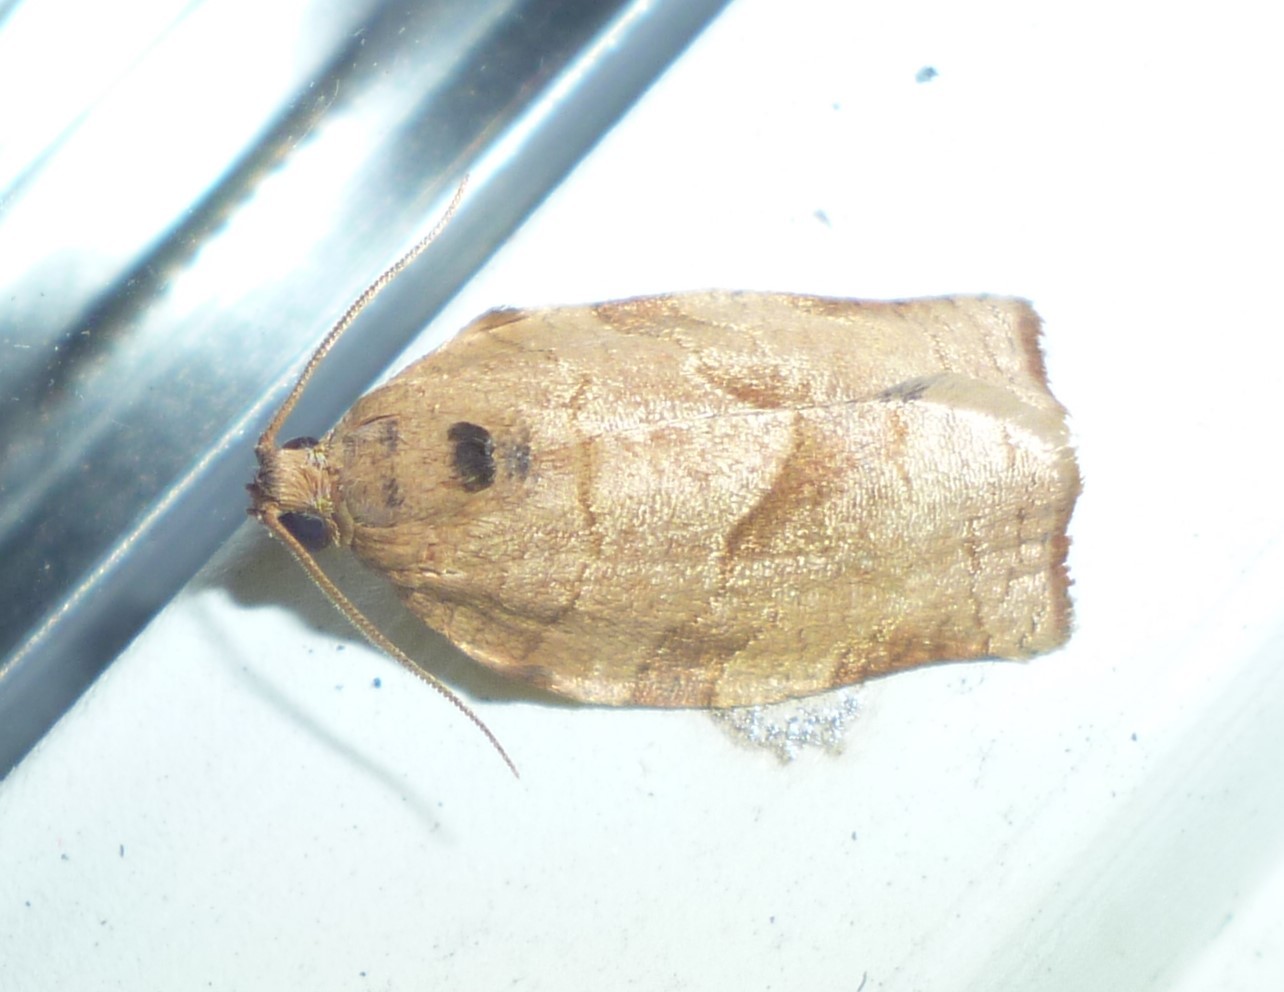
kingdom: Animalia
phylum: Arthropoda
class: Insecta
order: Lepidoptera
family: Tortricidae
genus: Choristoneura
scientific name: Choristoneura rosaceana
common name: Oblique-banded leafroller moth
